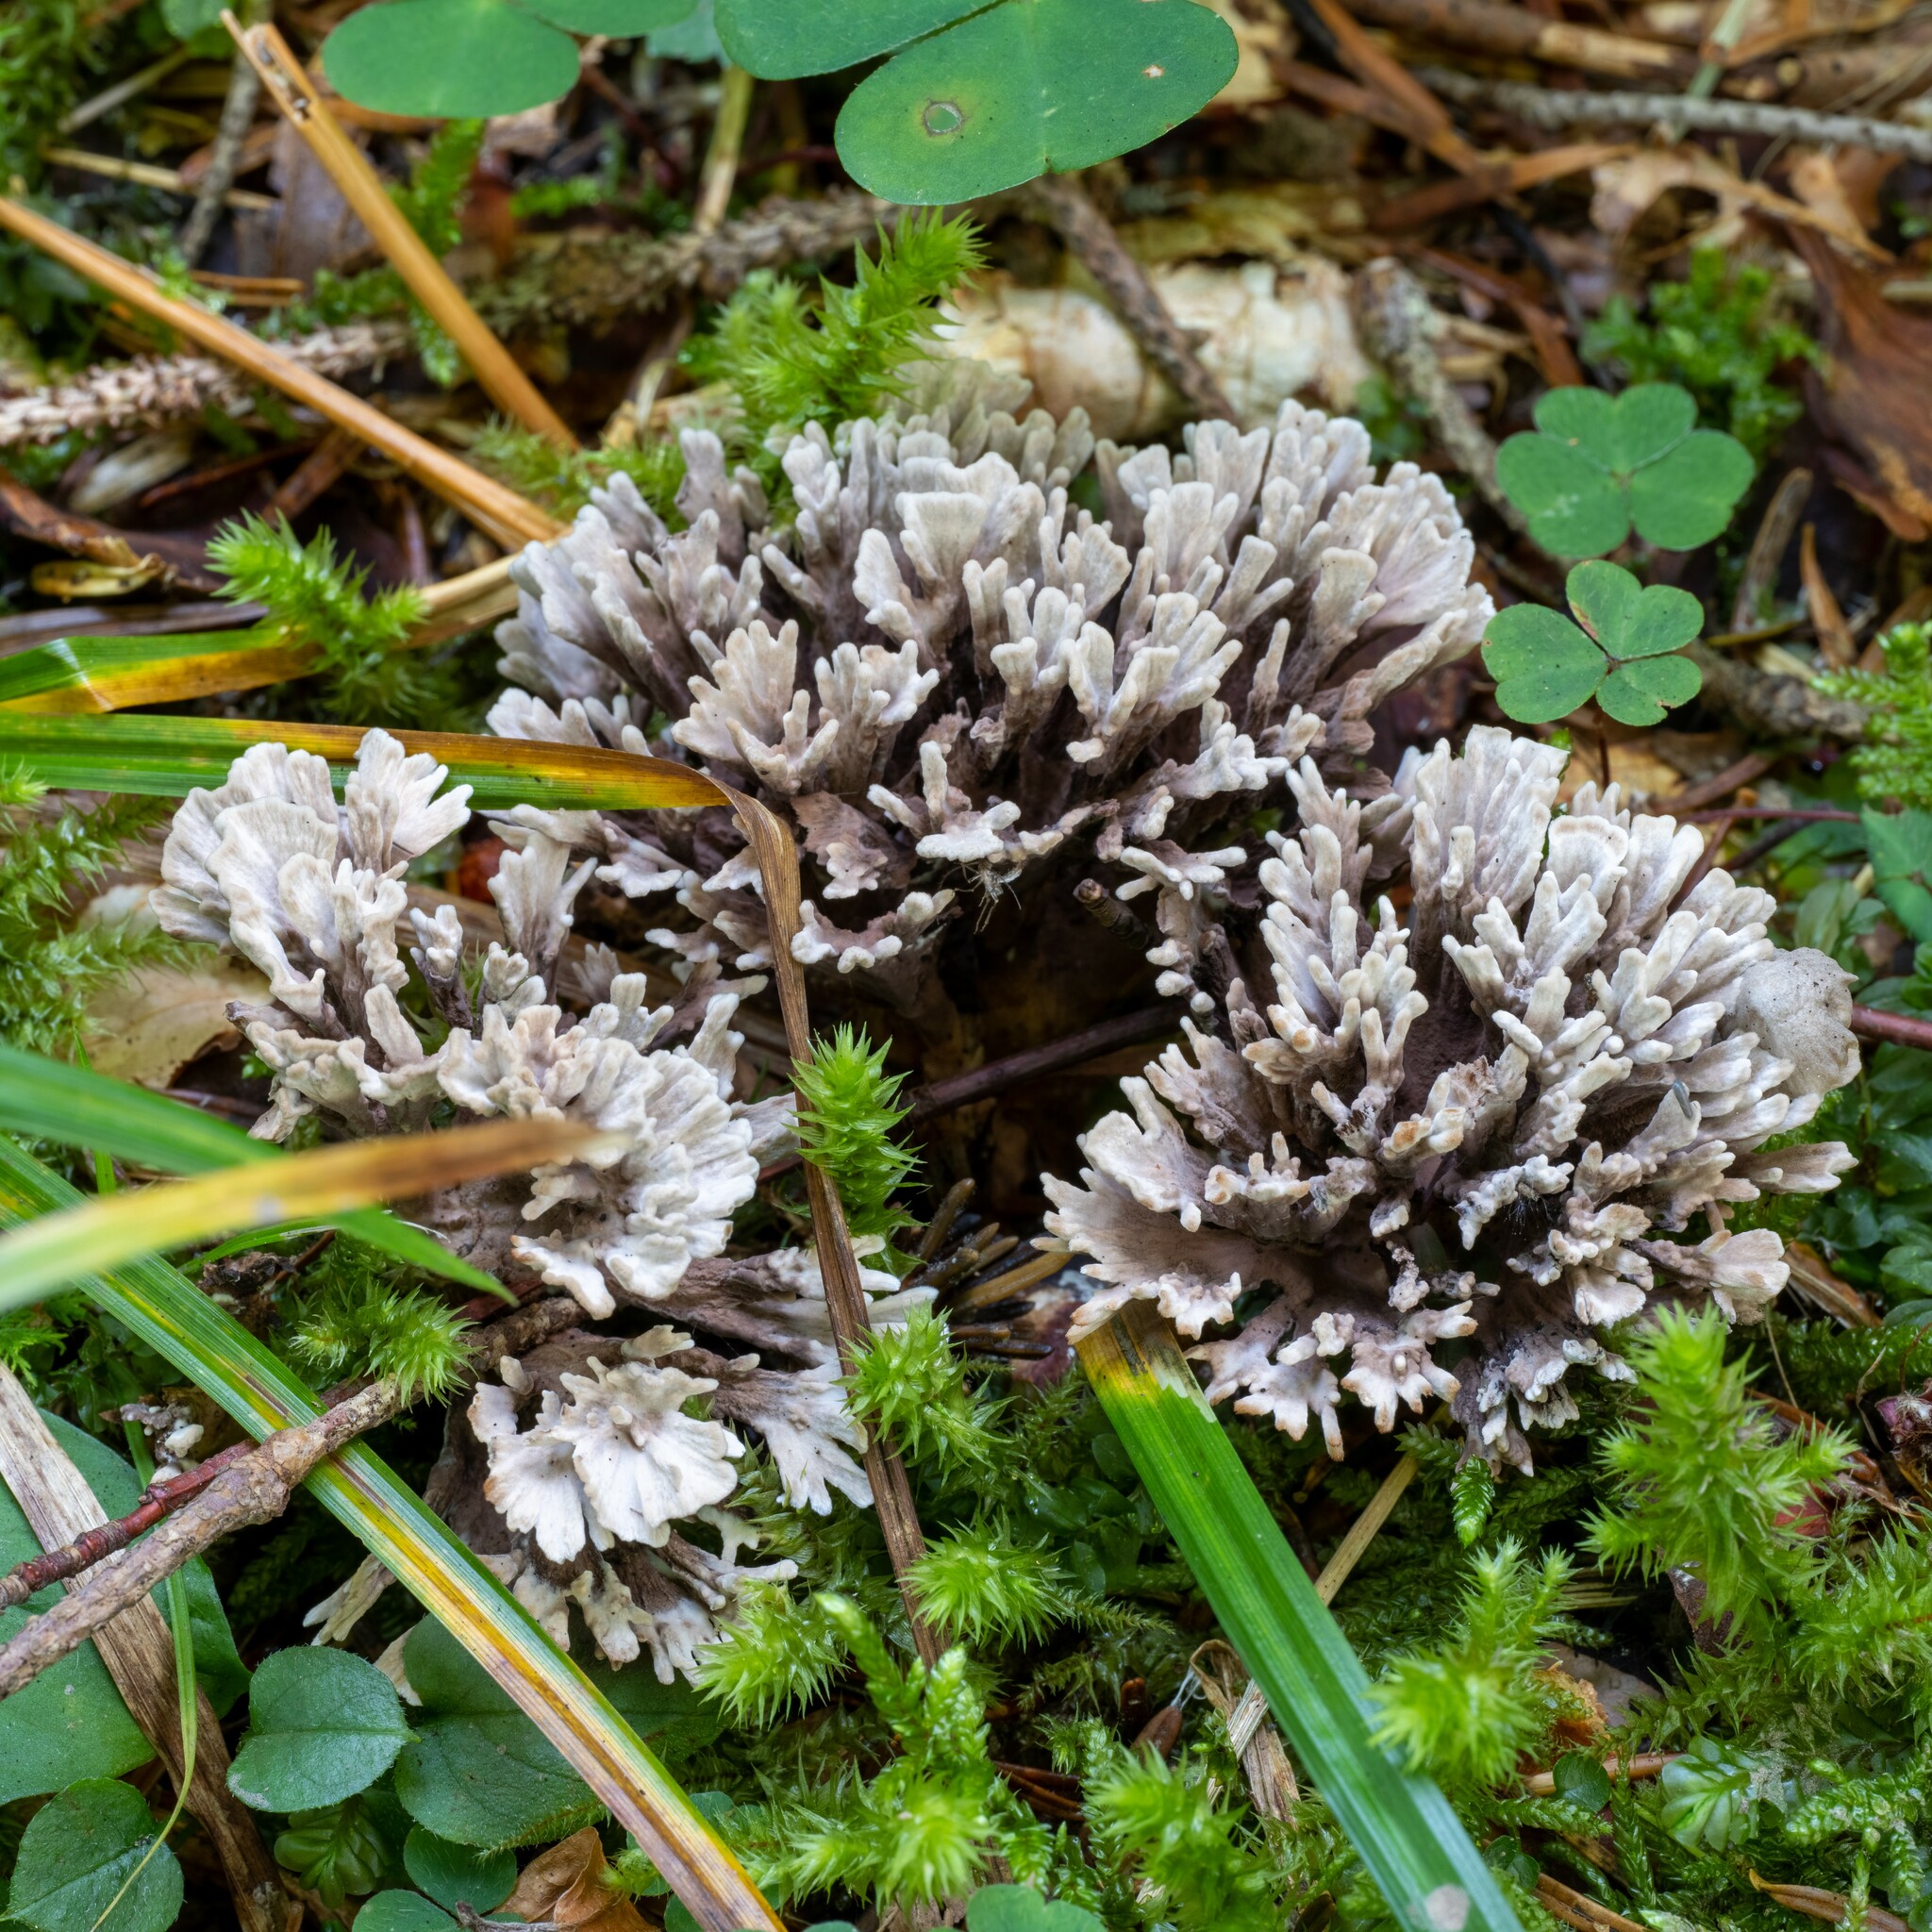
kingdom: Fungi
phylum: Basidiomycota
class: Agaricomycetes
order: Thelephorales
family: Thelephoraceae
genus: Thelephora
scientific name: Thelephora anthocephala
